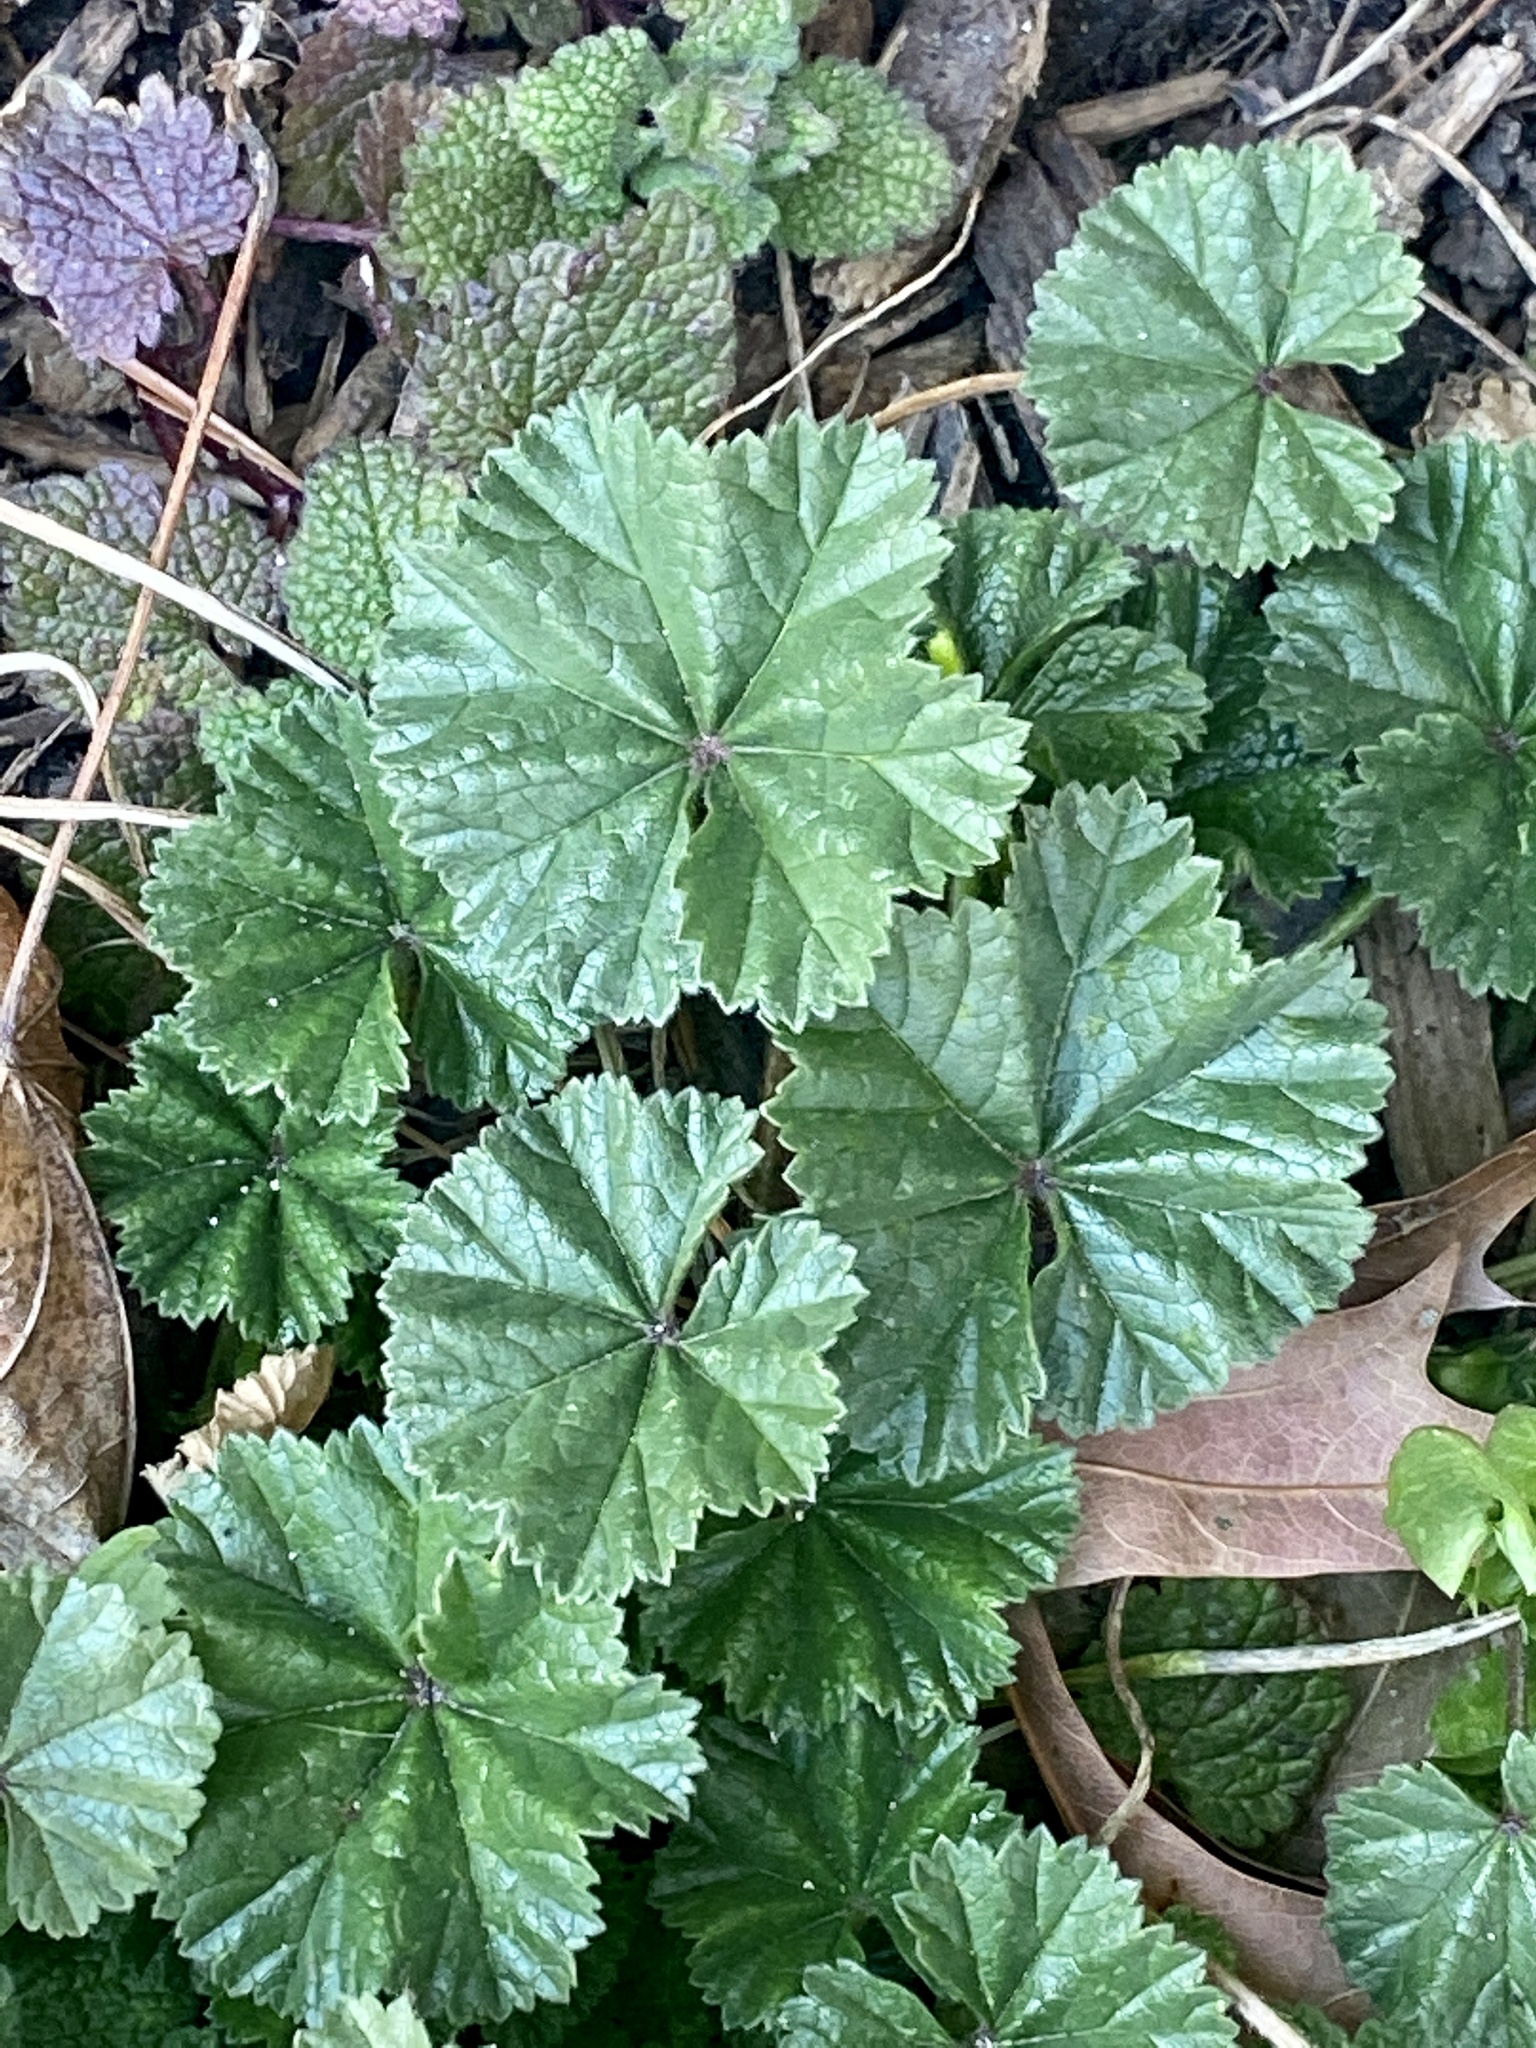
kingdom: Plantae
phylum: Tracheophyta
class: Magnoliopsida
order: Malvales
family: Malvaceae
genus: Malva
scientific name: Malva neglecta
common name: Common mallow
